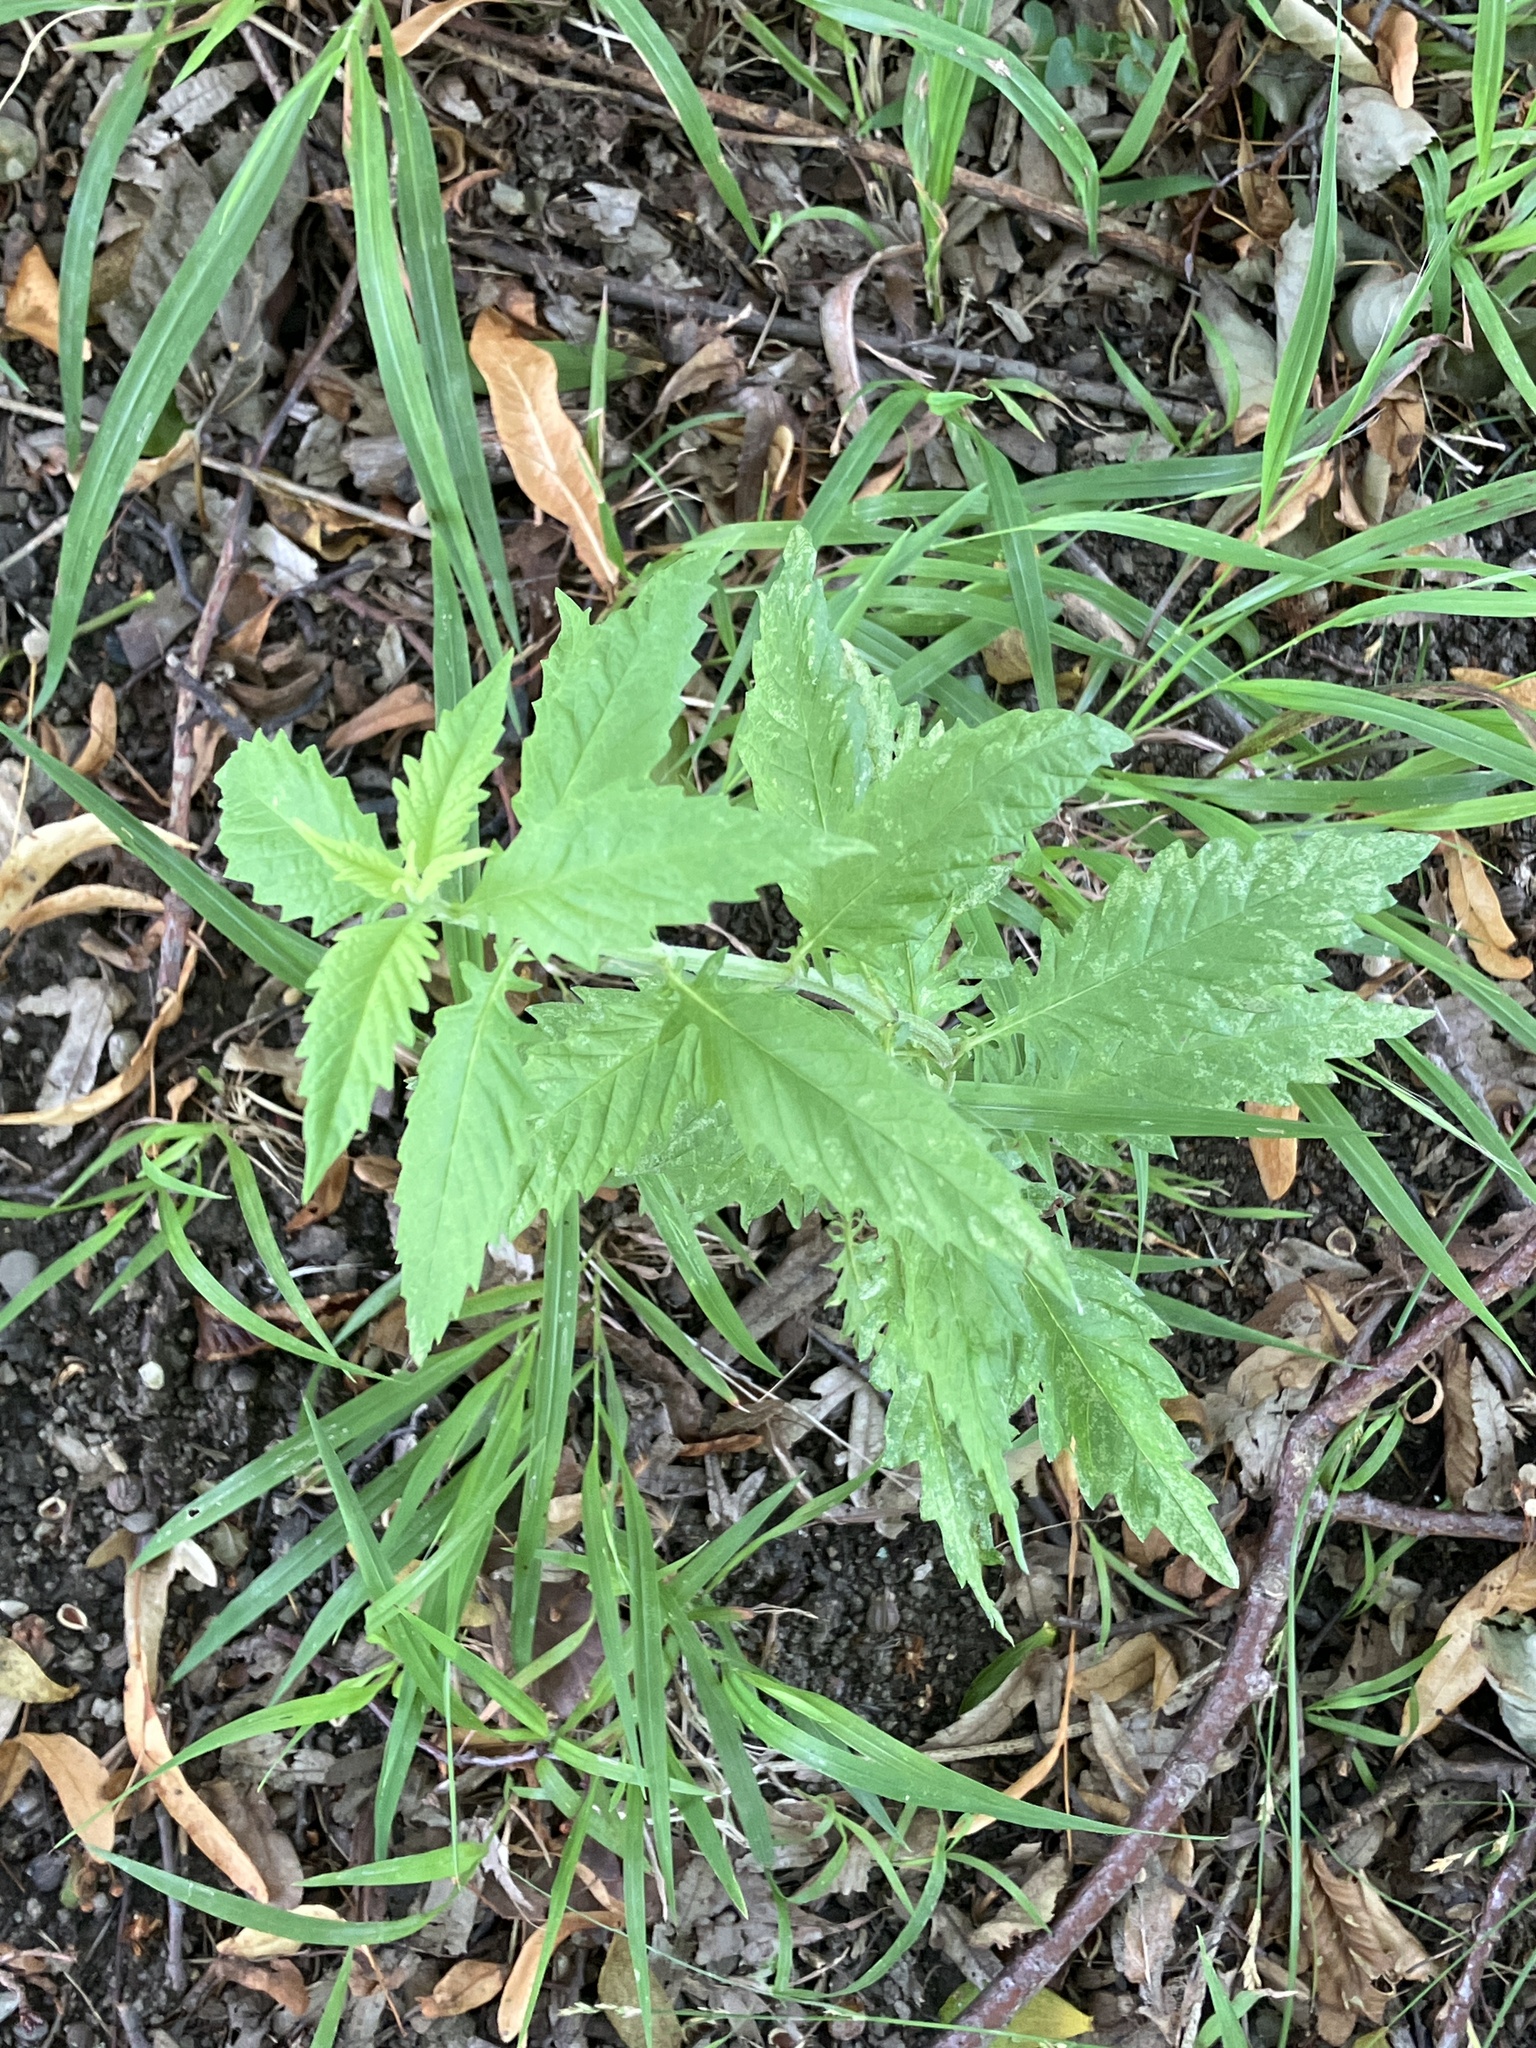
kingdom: Plantae
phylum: Tracheophyta
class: Magnoliopsida
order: Lamiales
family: Lamiaceae
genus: Lycopus
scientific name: Lycopus europaeus
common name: European bugleweed
